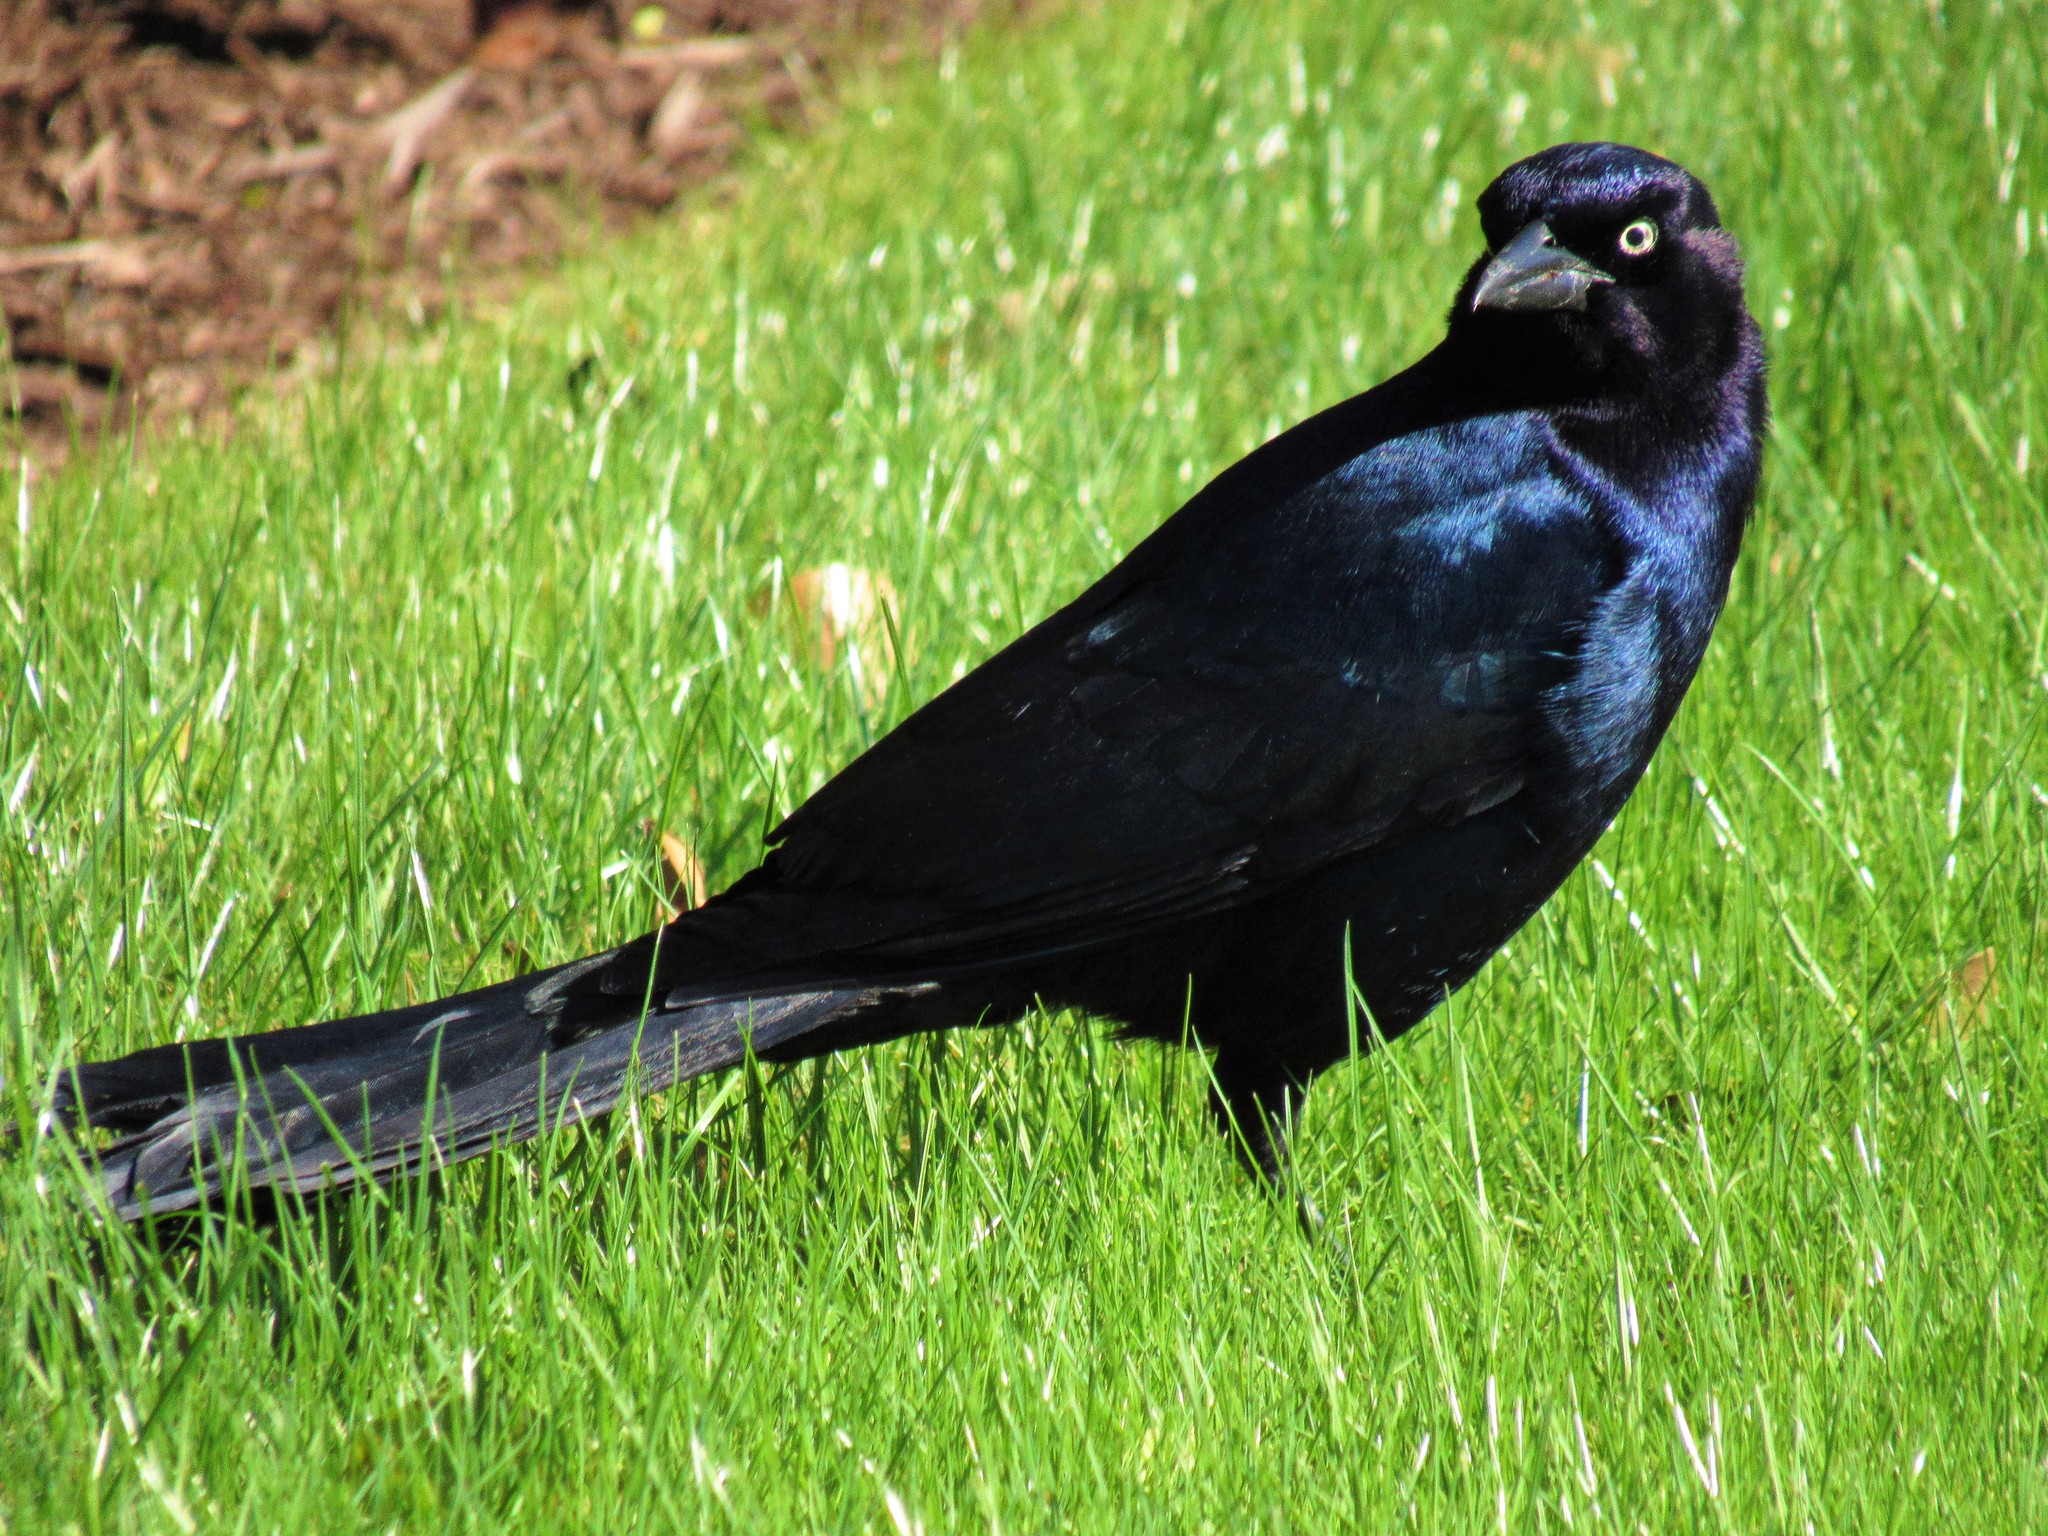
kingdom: Animalia
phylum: Chordata
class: Aves
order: Passeriformes
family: Icteridae
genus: Quiscalus
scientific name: Quiscalus major
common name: Boat-tailed grackle
